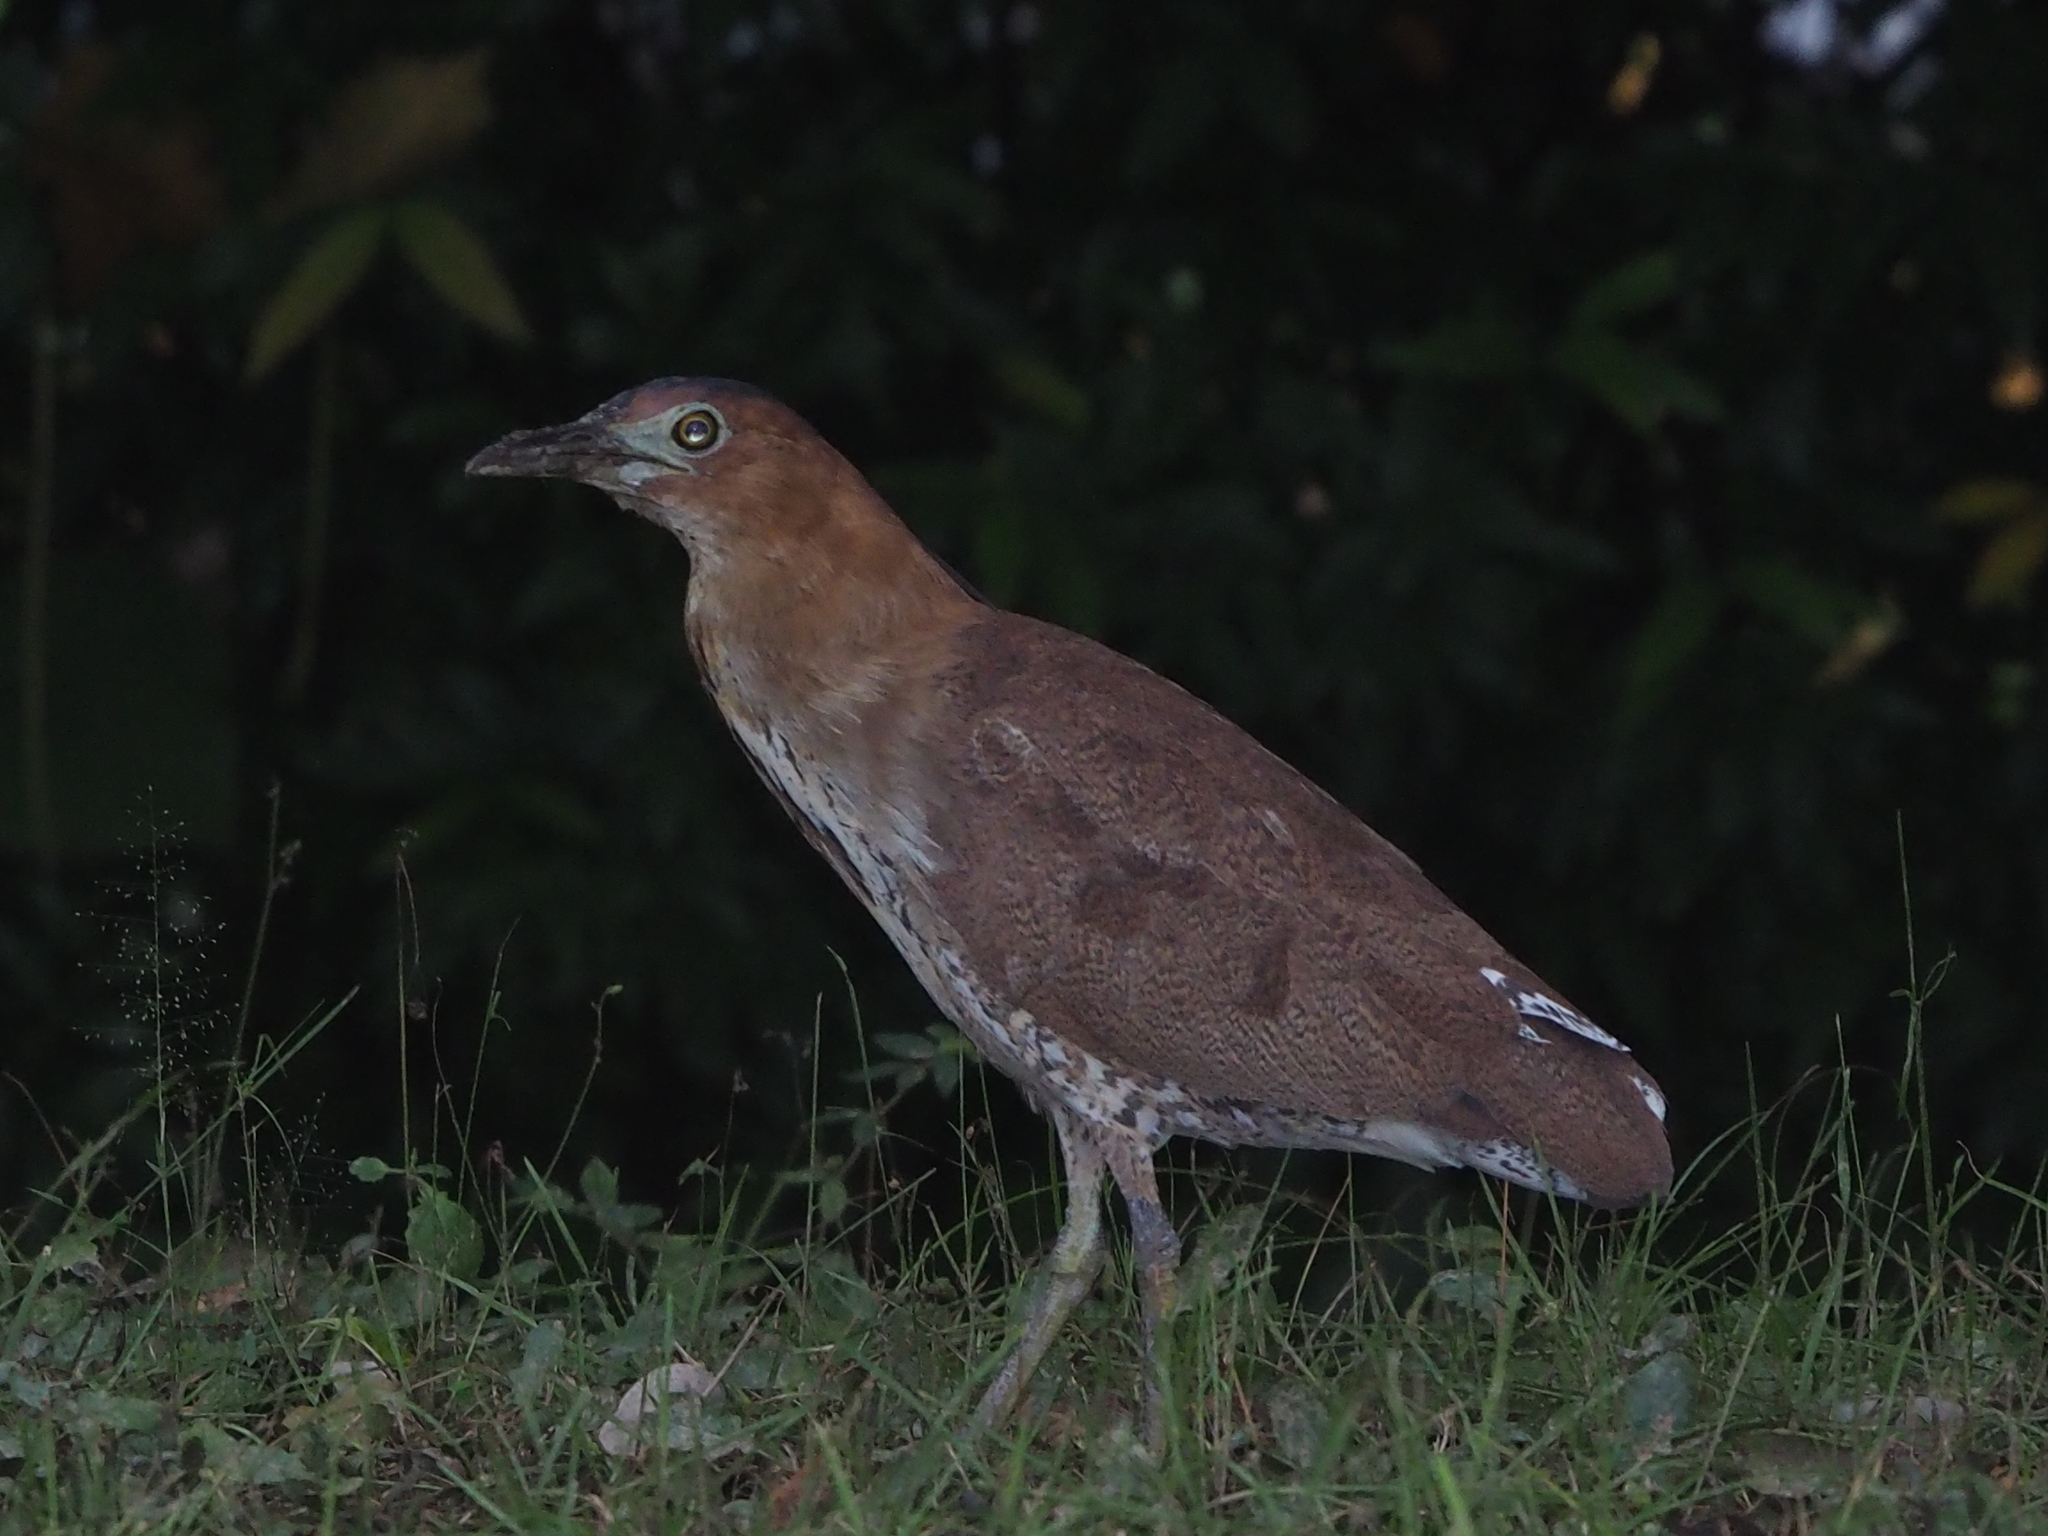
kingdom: Animalia
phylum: Chordata
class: Aves
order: Pelecaniformes
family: Ardeidae
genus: Gorsachius
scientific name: Gorsachius melanolophus
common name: Malayan night heron
